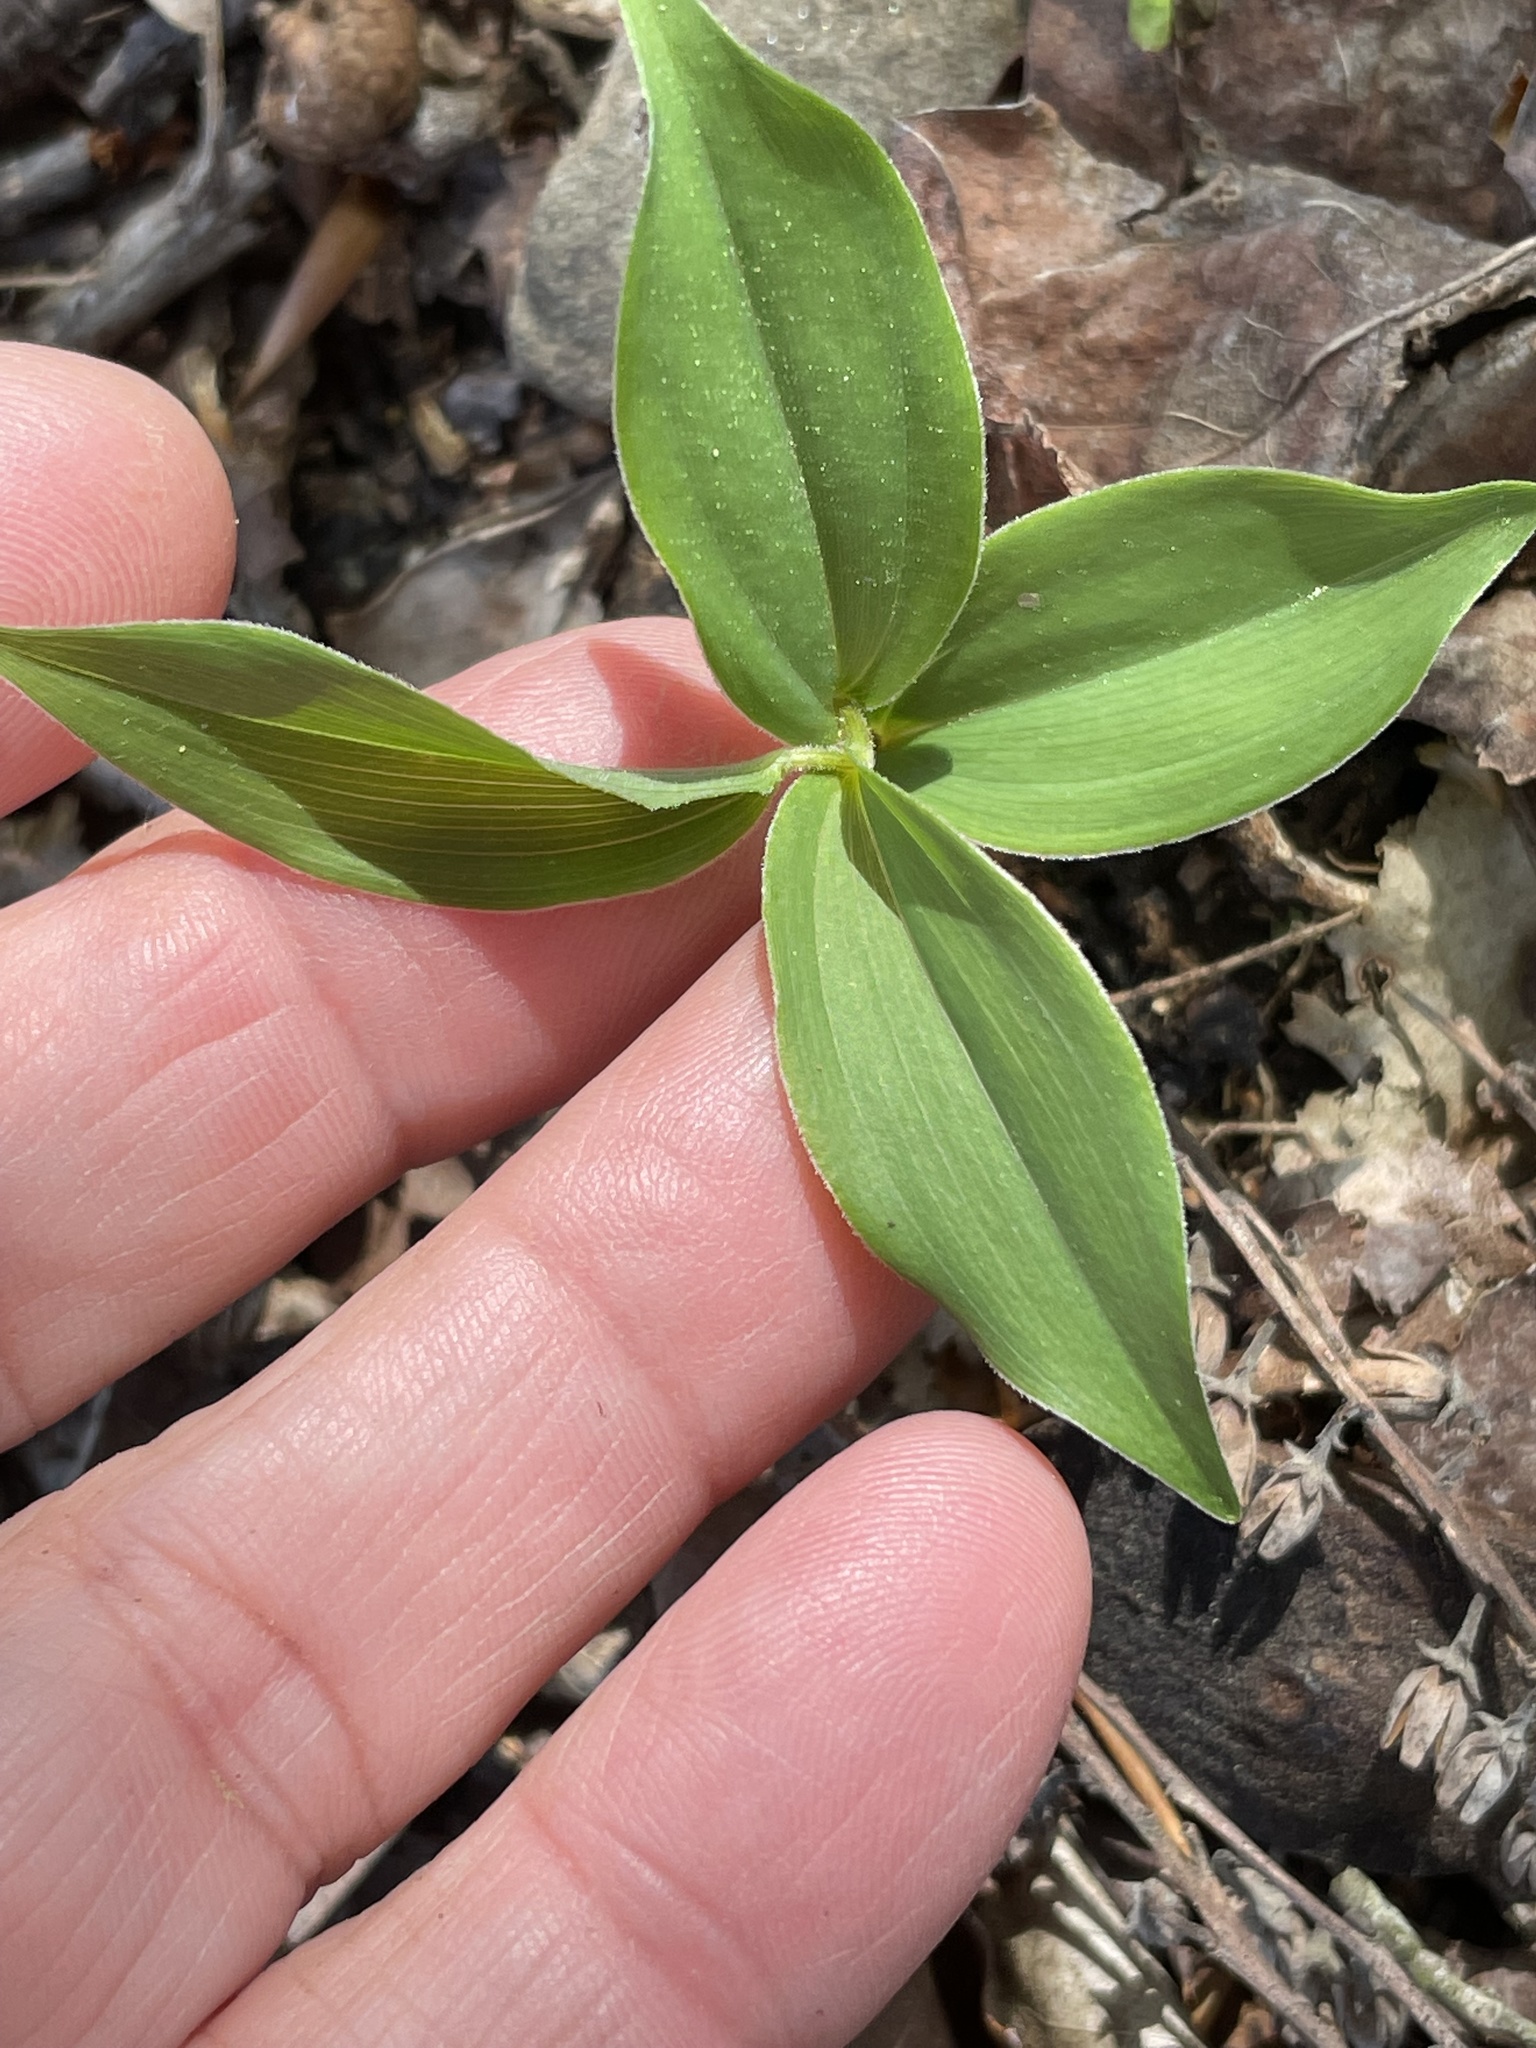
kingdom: Plantae
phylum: Tracheophyta
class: Liliopsida
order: Asparagales
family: Asparagaceae
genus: Maianthemum
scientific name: Maianthemum racemosum
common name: False spikenard
